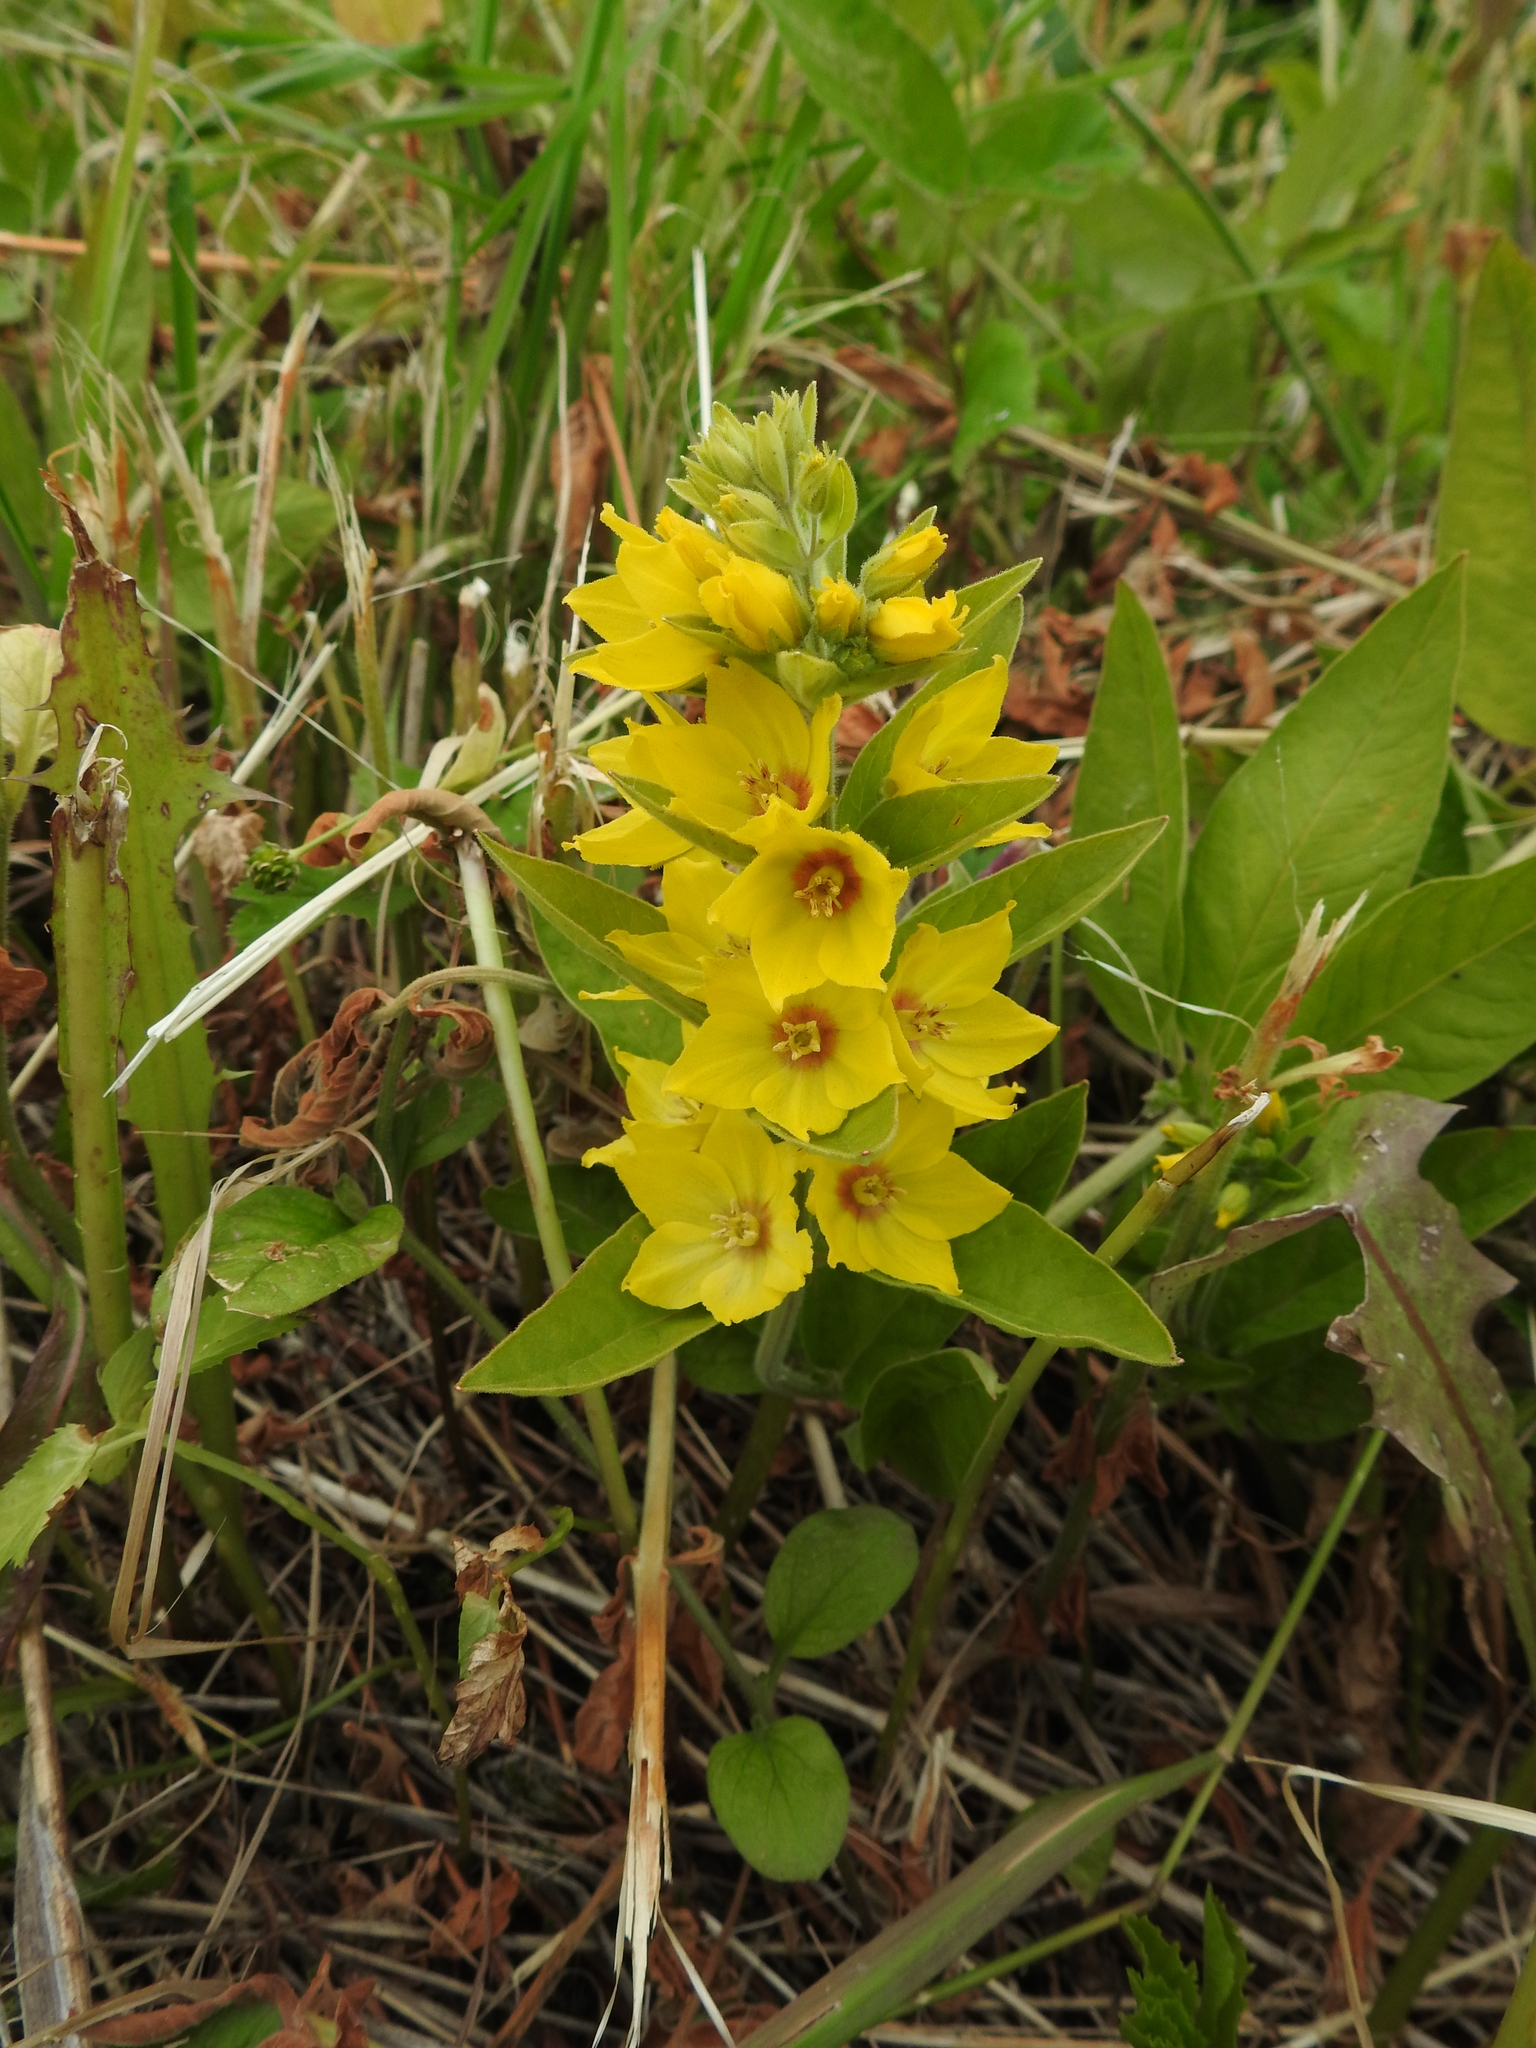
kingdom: Plantae
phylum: Tracheophyta
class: Magnoliopsida
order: Ericales
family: Primulaceae
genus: Lysimachia
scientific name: Lysimachia punctata
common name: Dotted loosestrife
